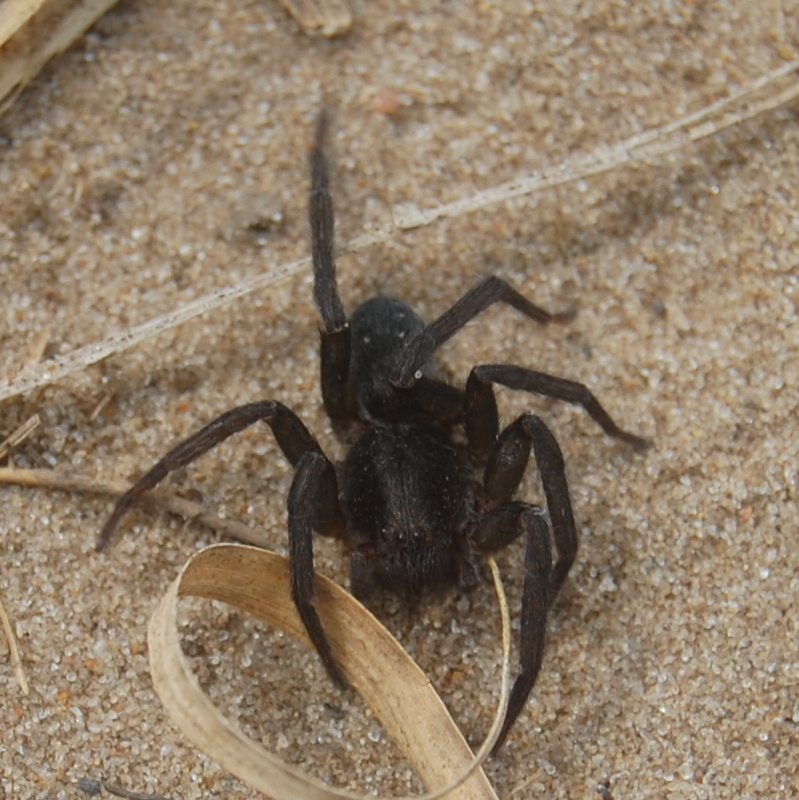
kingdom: Animalia
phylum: Arthropoda
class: Arachnida
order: Araneae
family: Ctenidae
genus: Asthenoctenus
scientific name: Asthenoctenus borellii
